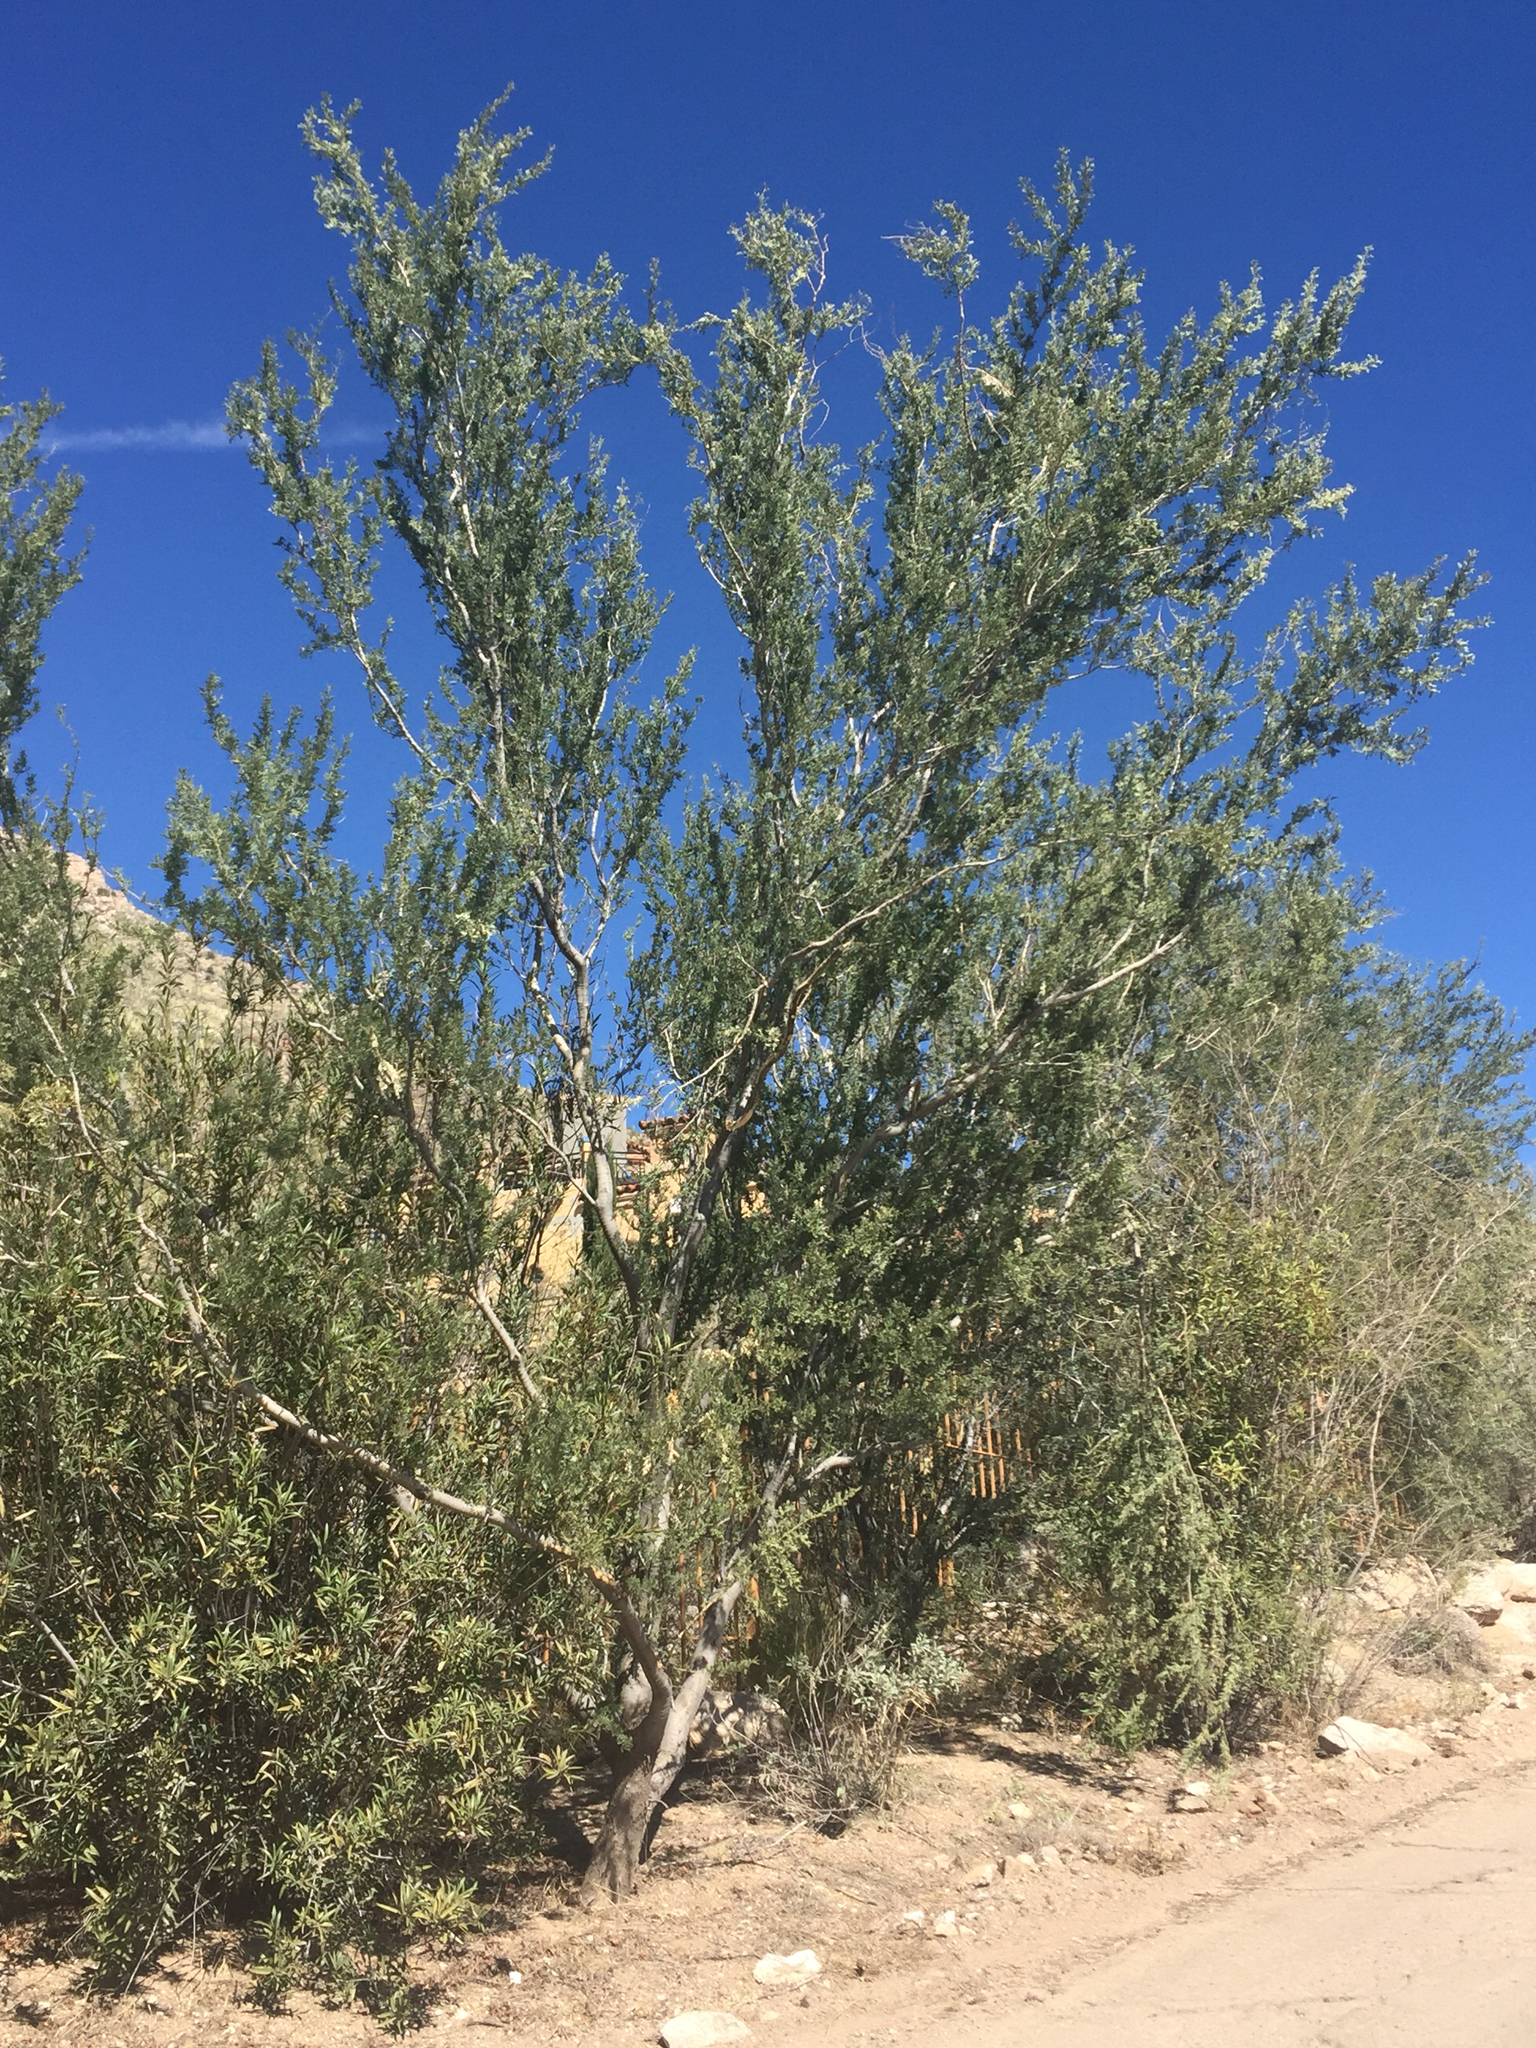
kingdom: Plantae
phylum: Tracheophyta
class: Magnoliopsida
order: Fabales
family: Fabaceae
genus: Olneya
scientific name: Olneya tesota
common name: Desert ironwood
